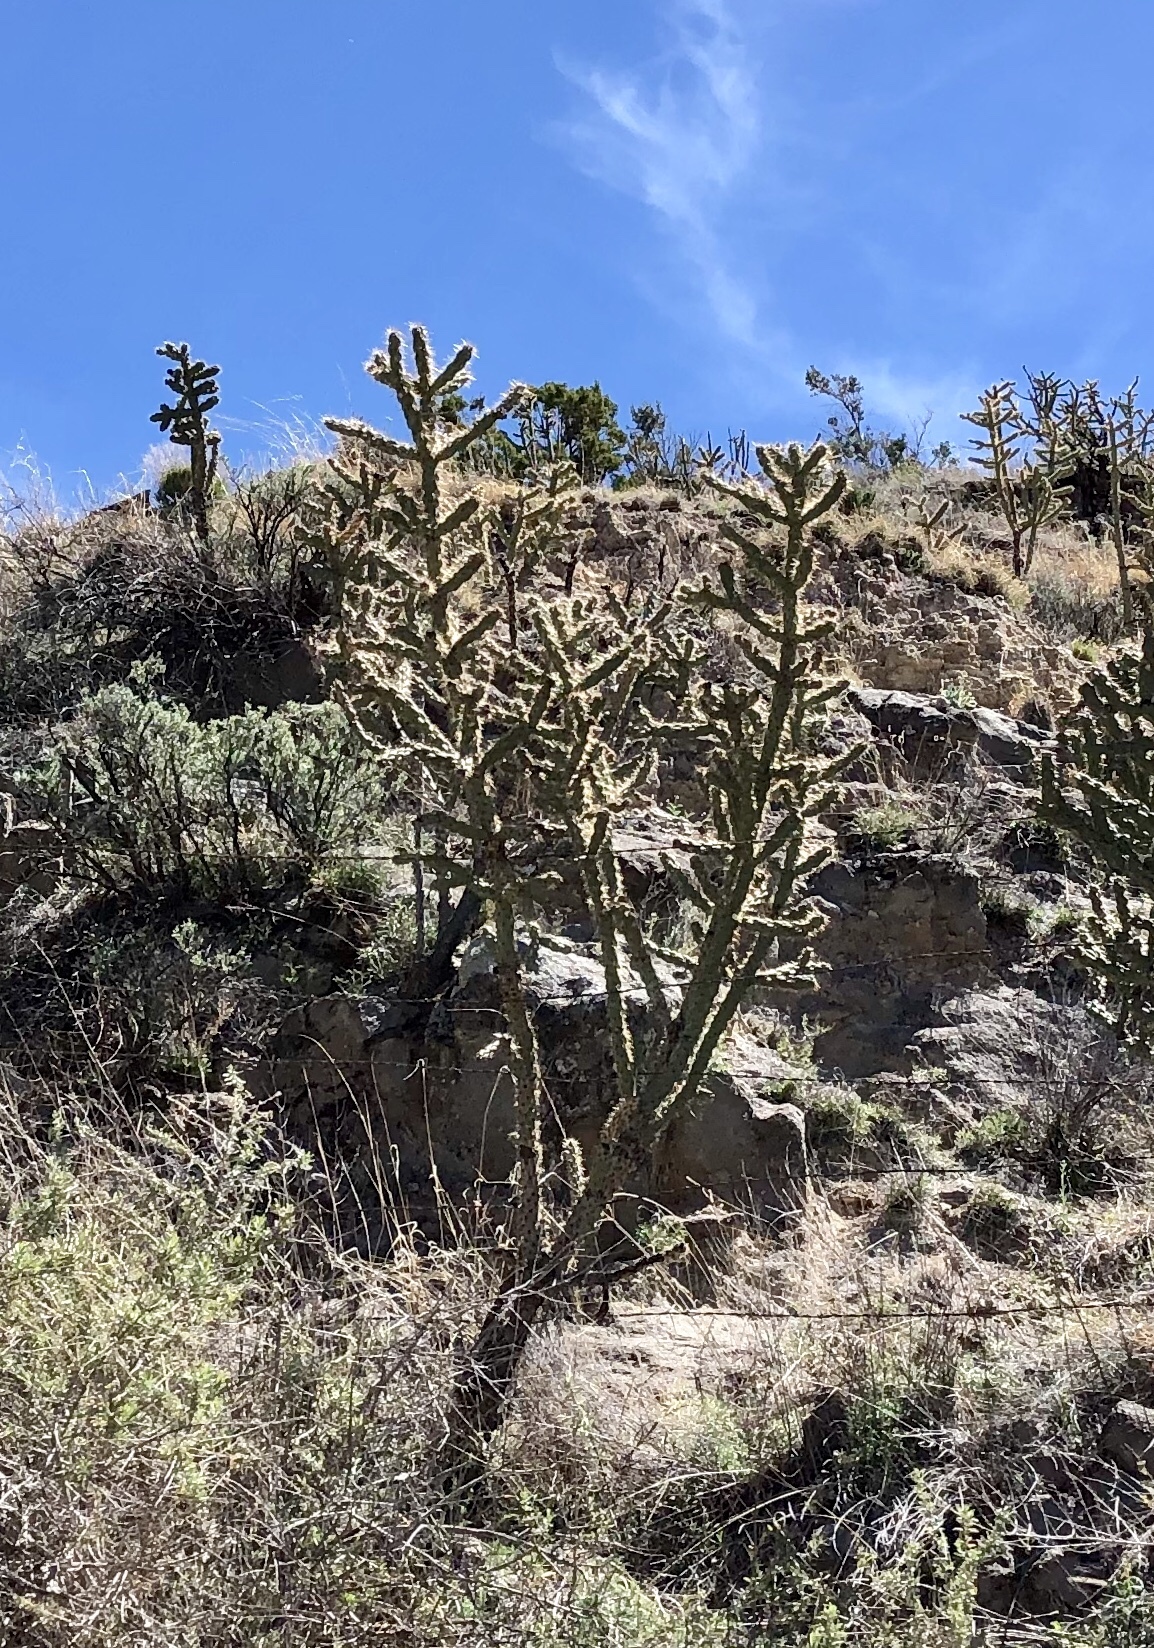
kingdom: Plantae
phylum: Tracheophyta
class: Magnoliopsida
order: Caryophyllales
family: Cactaceae
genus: Cylindropuntia
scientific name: Cylindropuntia imbricata
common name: Candelabrum cactus
